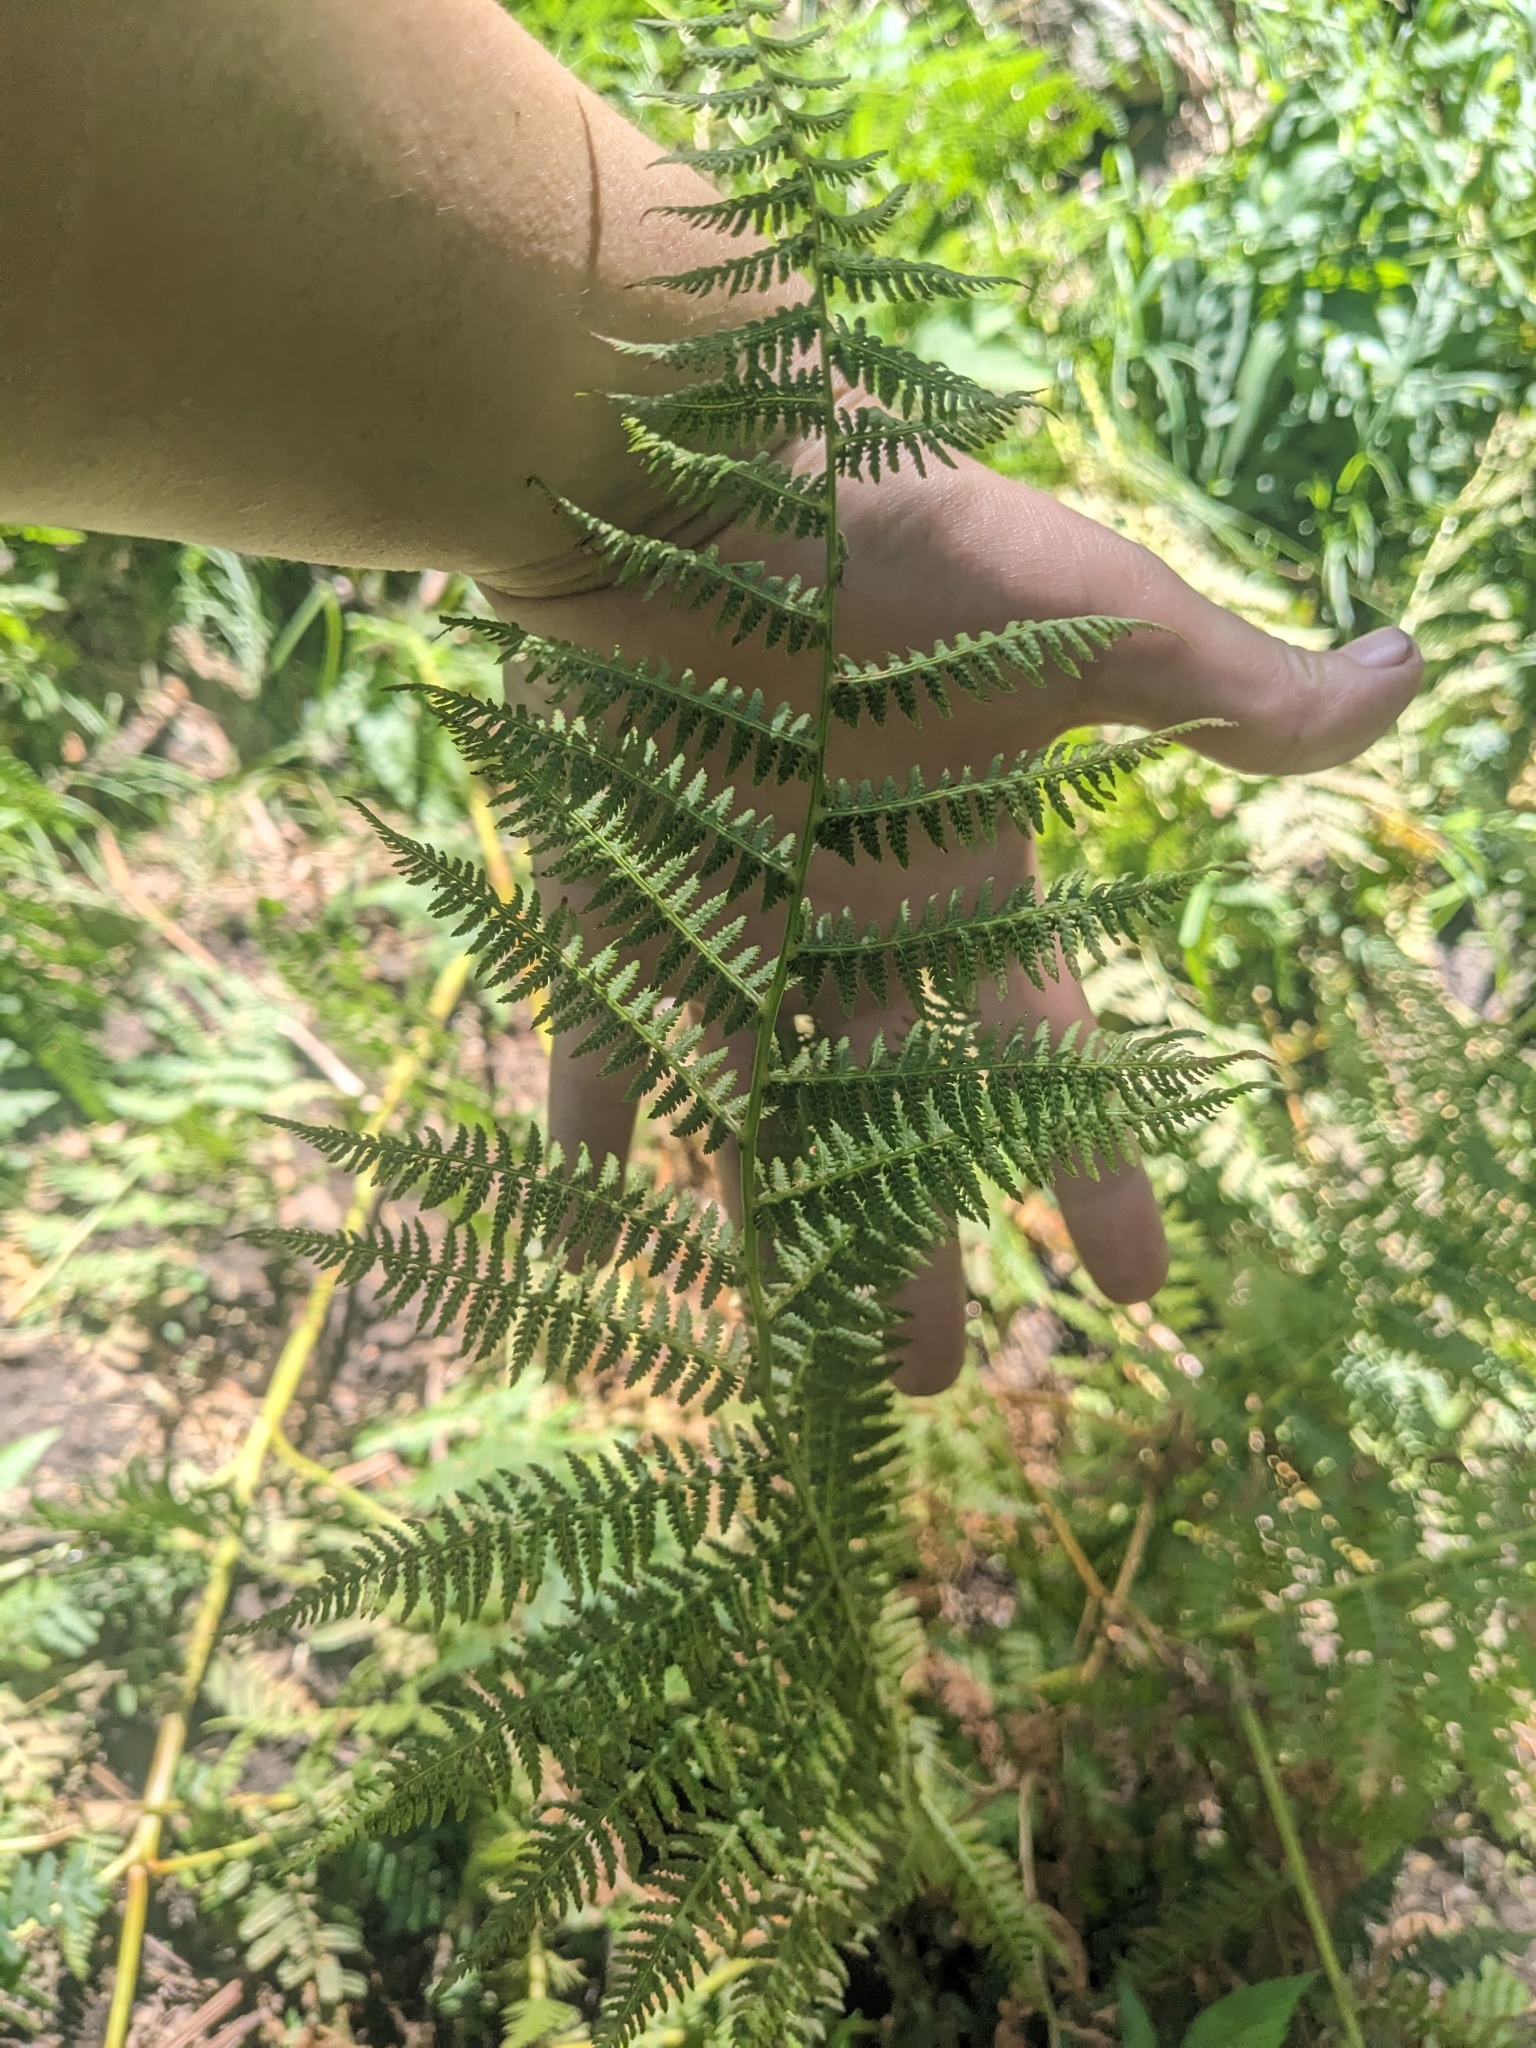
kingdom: Plantae
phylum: Tracheophyta
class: Polypodiopsida
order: Polypodiales
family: Athyriaceae
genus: Athyrium
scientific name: Athyrium filix-femina
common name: Lady fern
